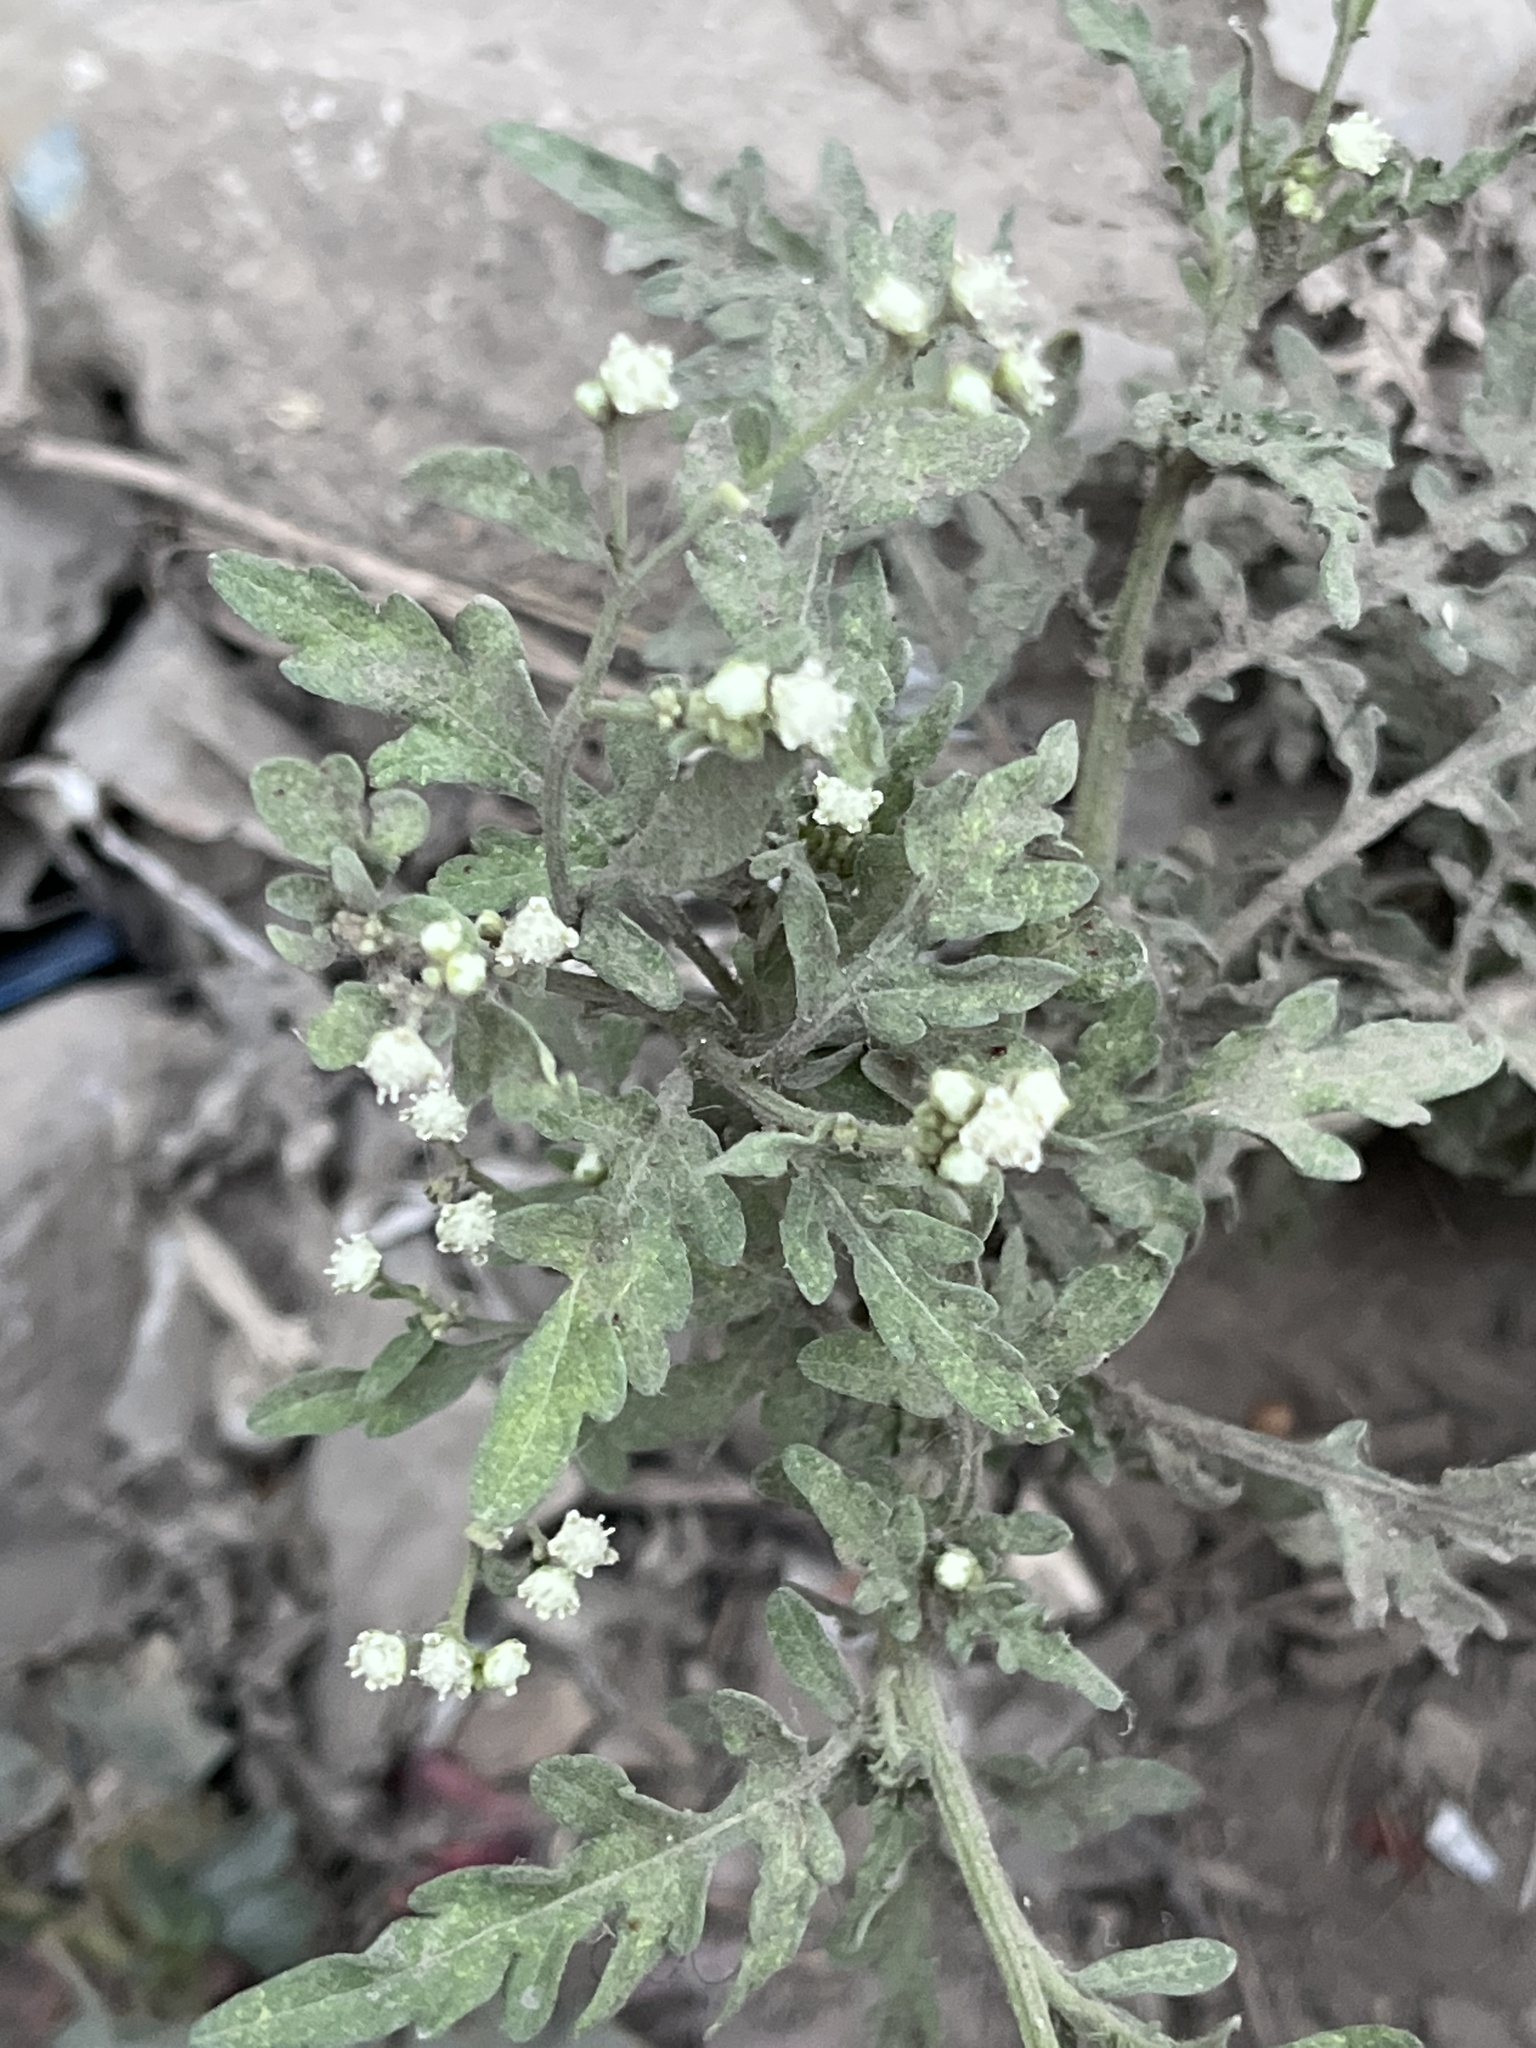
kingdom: Plantae
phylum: Tracheophyta
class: Magnoliopsida
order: Asterales
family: Asteraceae
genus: Parthenium
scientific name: Parthenium hysterophorus
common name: Santa maria feverfew
